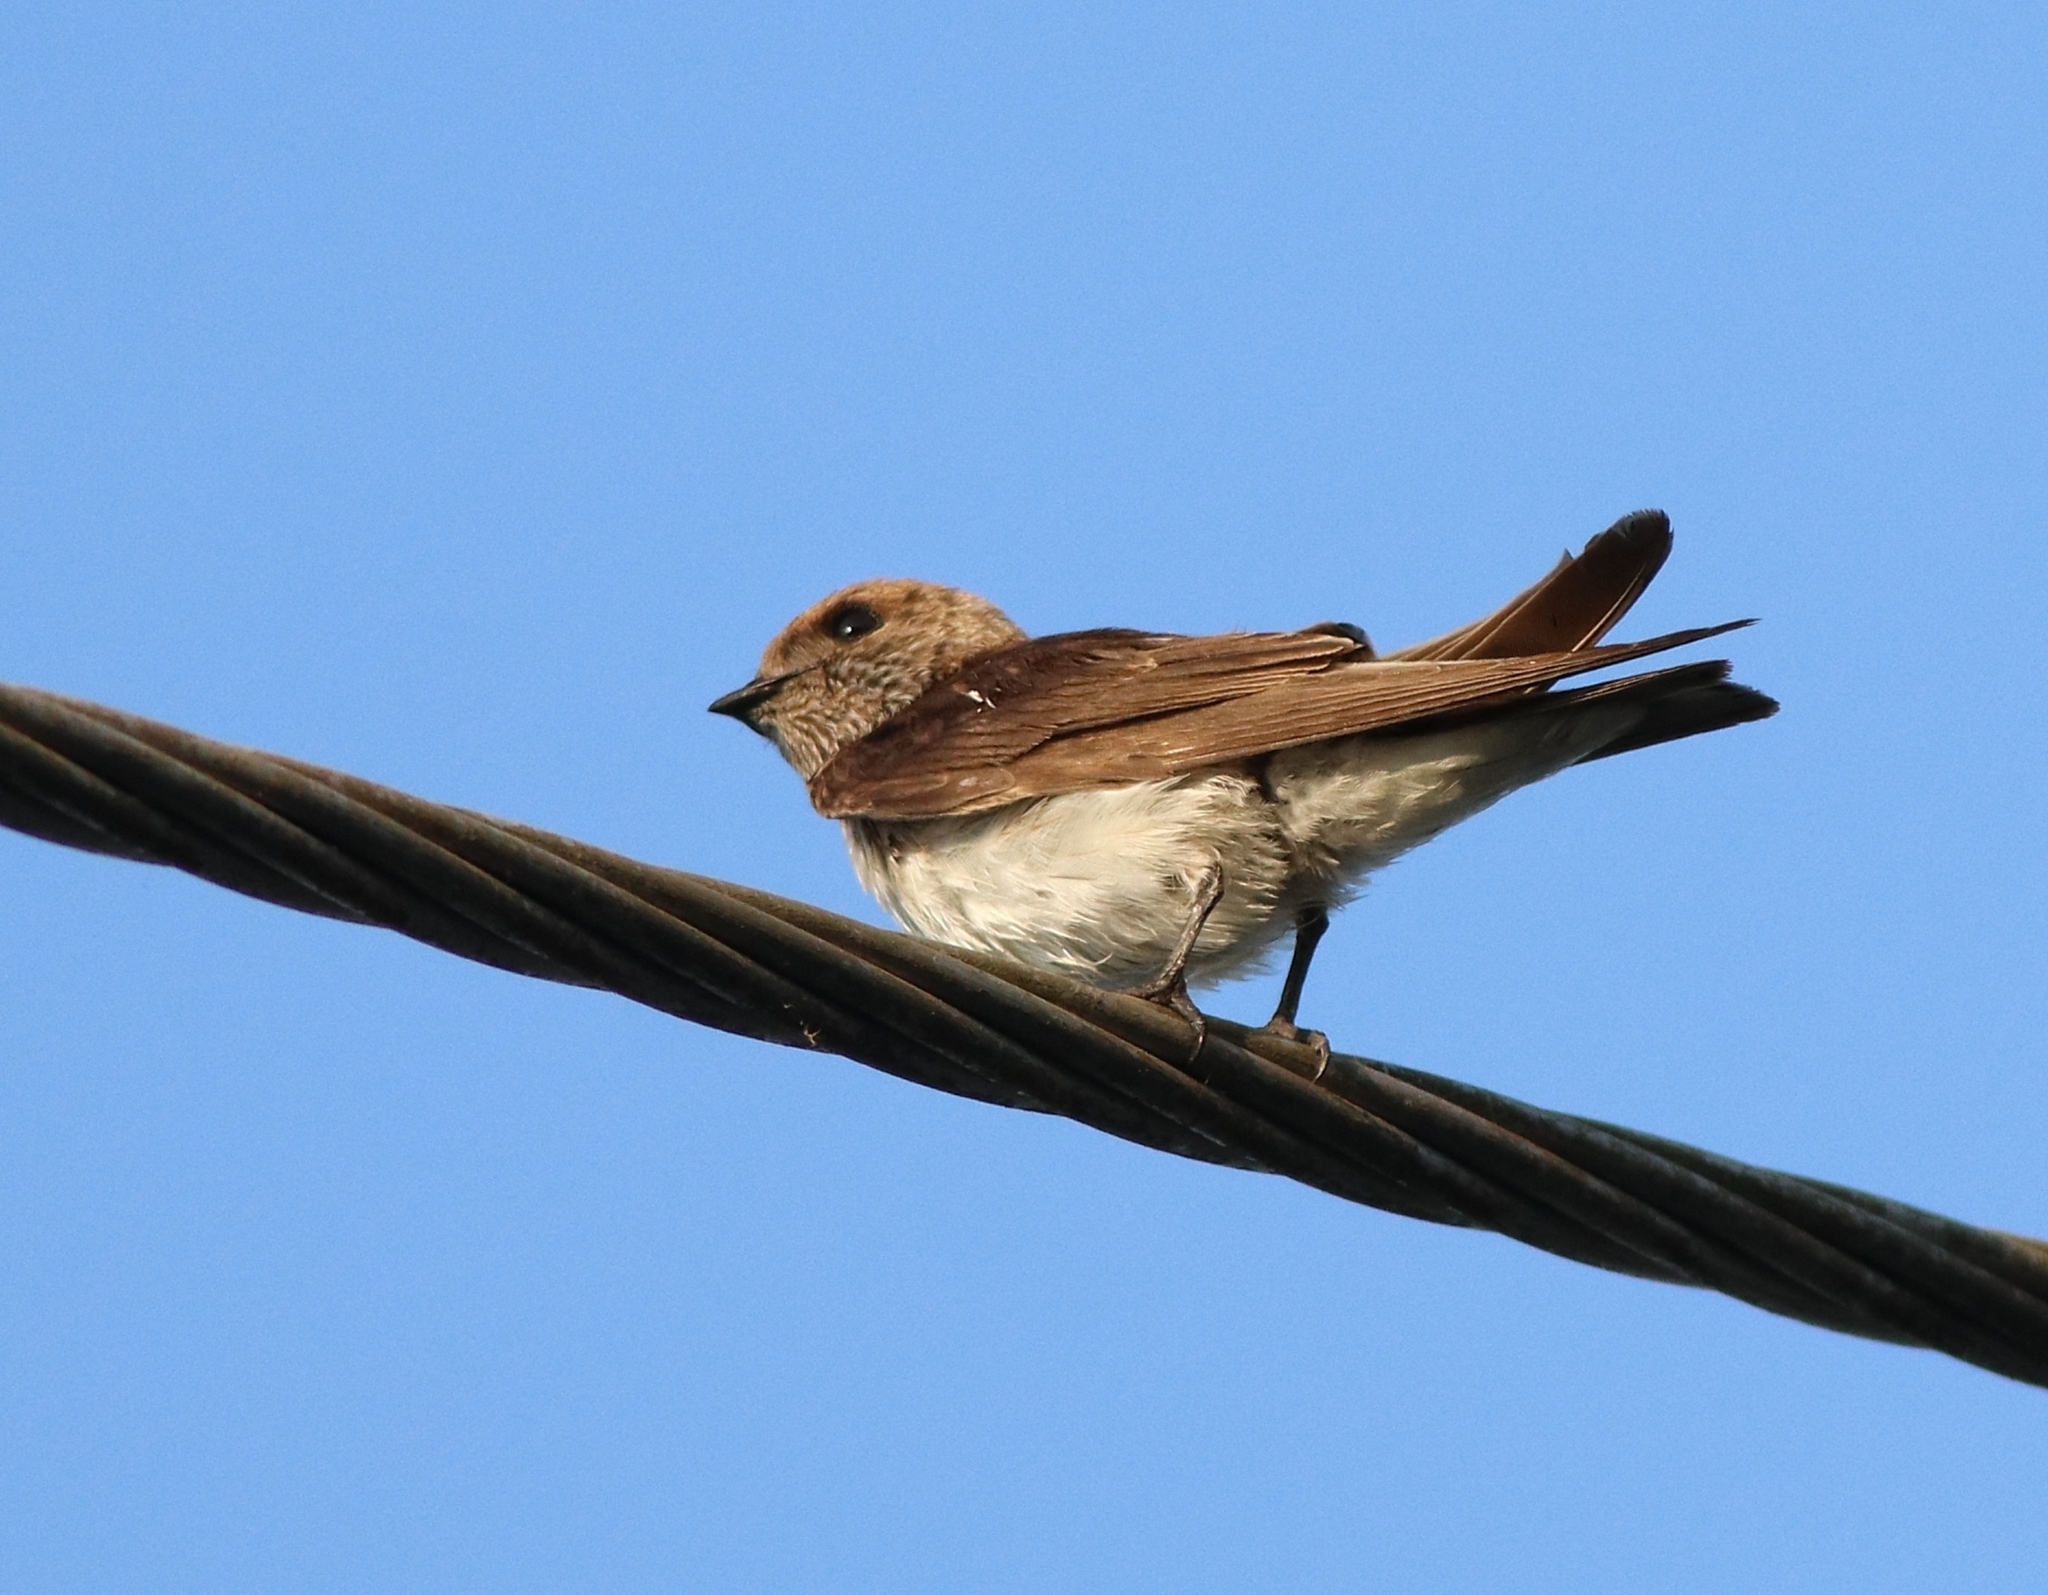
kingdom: Animalia
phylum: Chordata
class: Aves
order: Passeriformes
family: Hirundinidae
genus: Petrochelidon
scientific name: Petrochelidon fluvicola
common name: Streak-throated swallow
